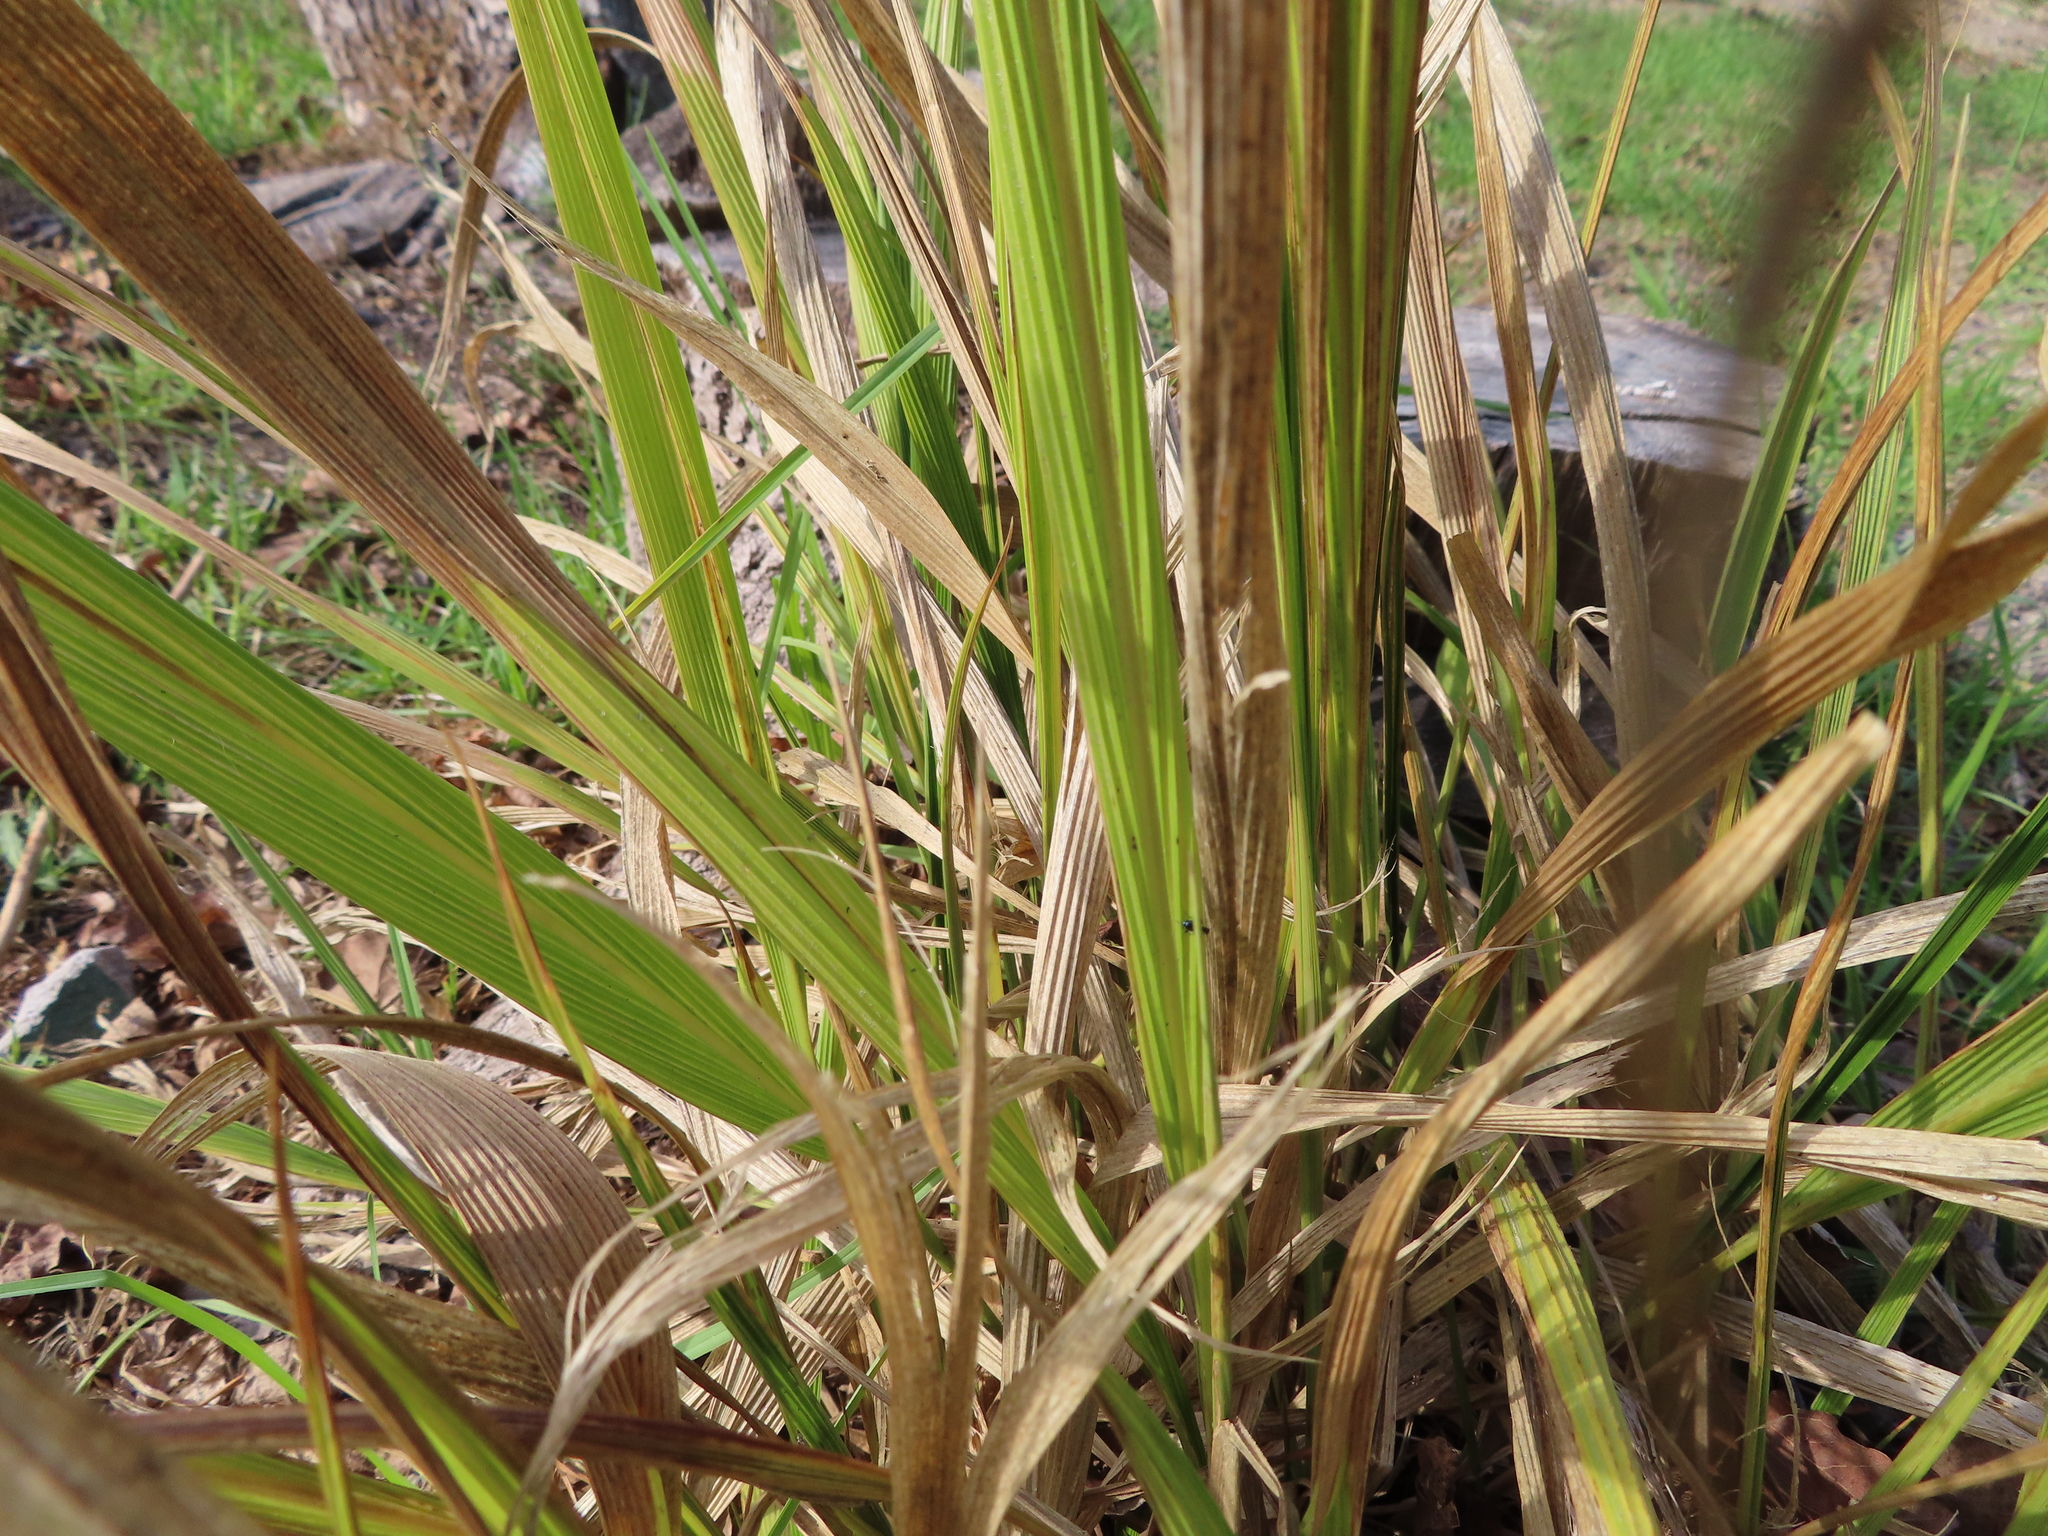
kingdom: Plantae
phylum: Tracheophyta
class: Liliopsida
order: Poales
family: Poaceae
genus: Setaria
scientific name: Setaria megaphylla
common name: Bigleaf bristlegrass
